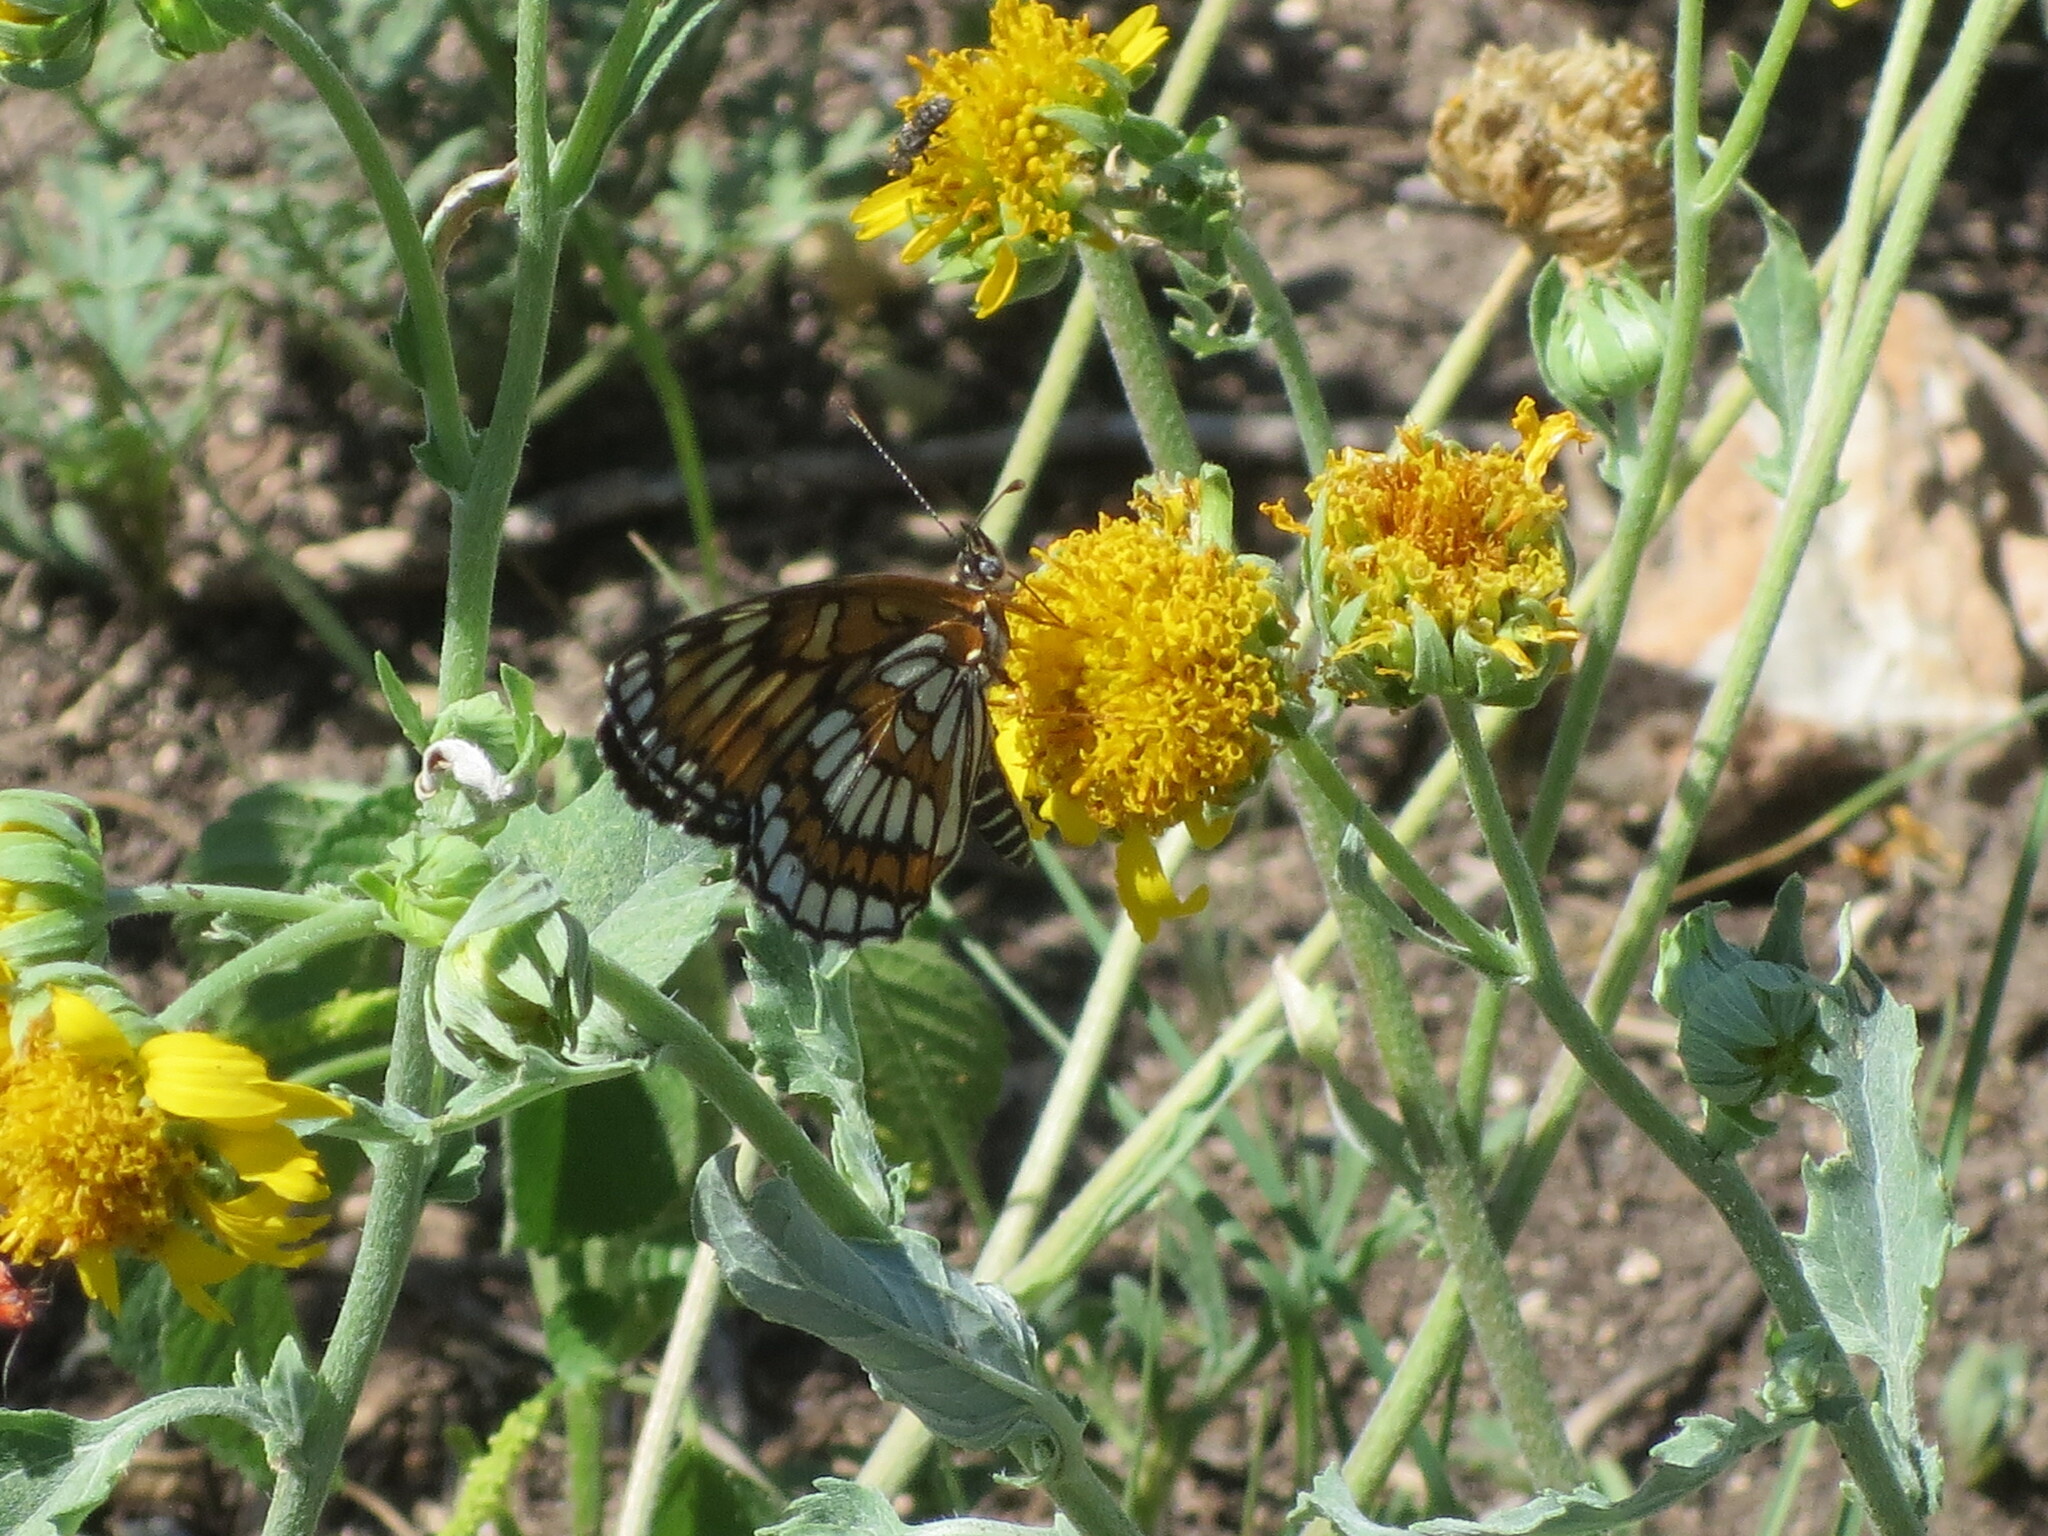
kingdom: Animalia
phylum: Arthropoda
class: Insecta
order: Lepidoptera
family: Nymphalidae
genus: Thessalia
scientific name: Thessalia theona
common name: Nymphalid moth
